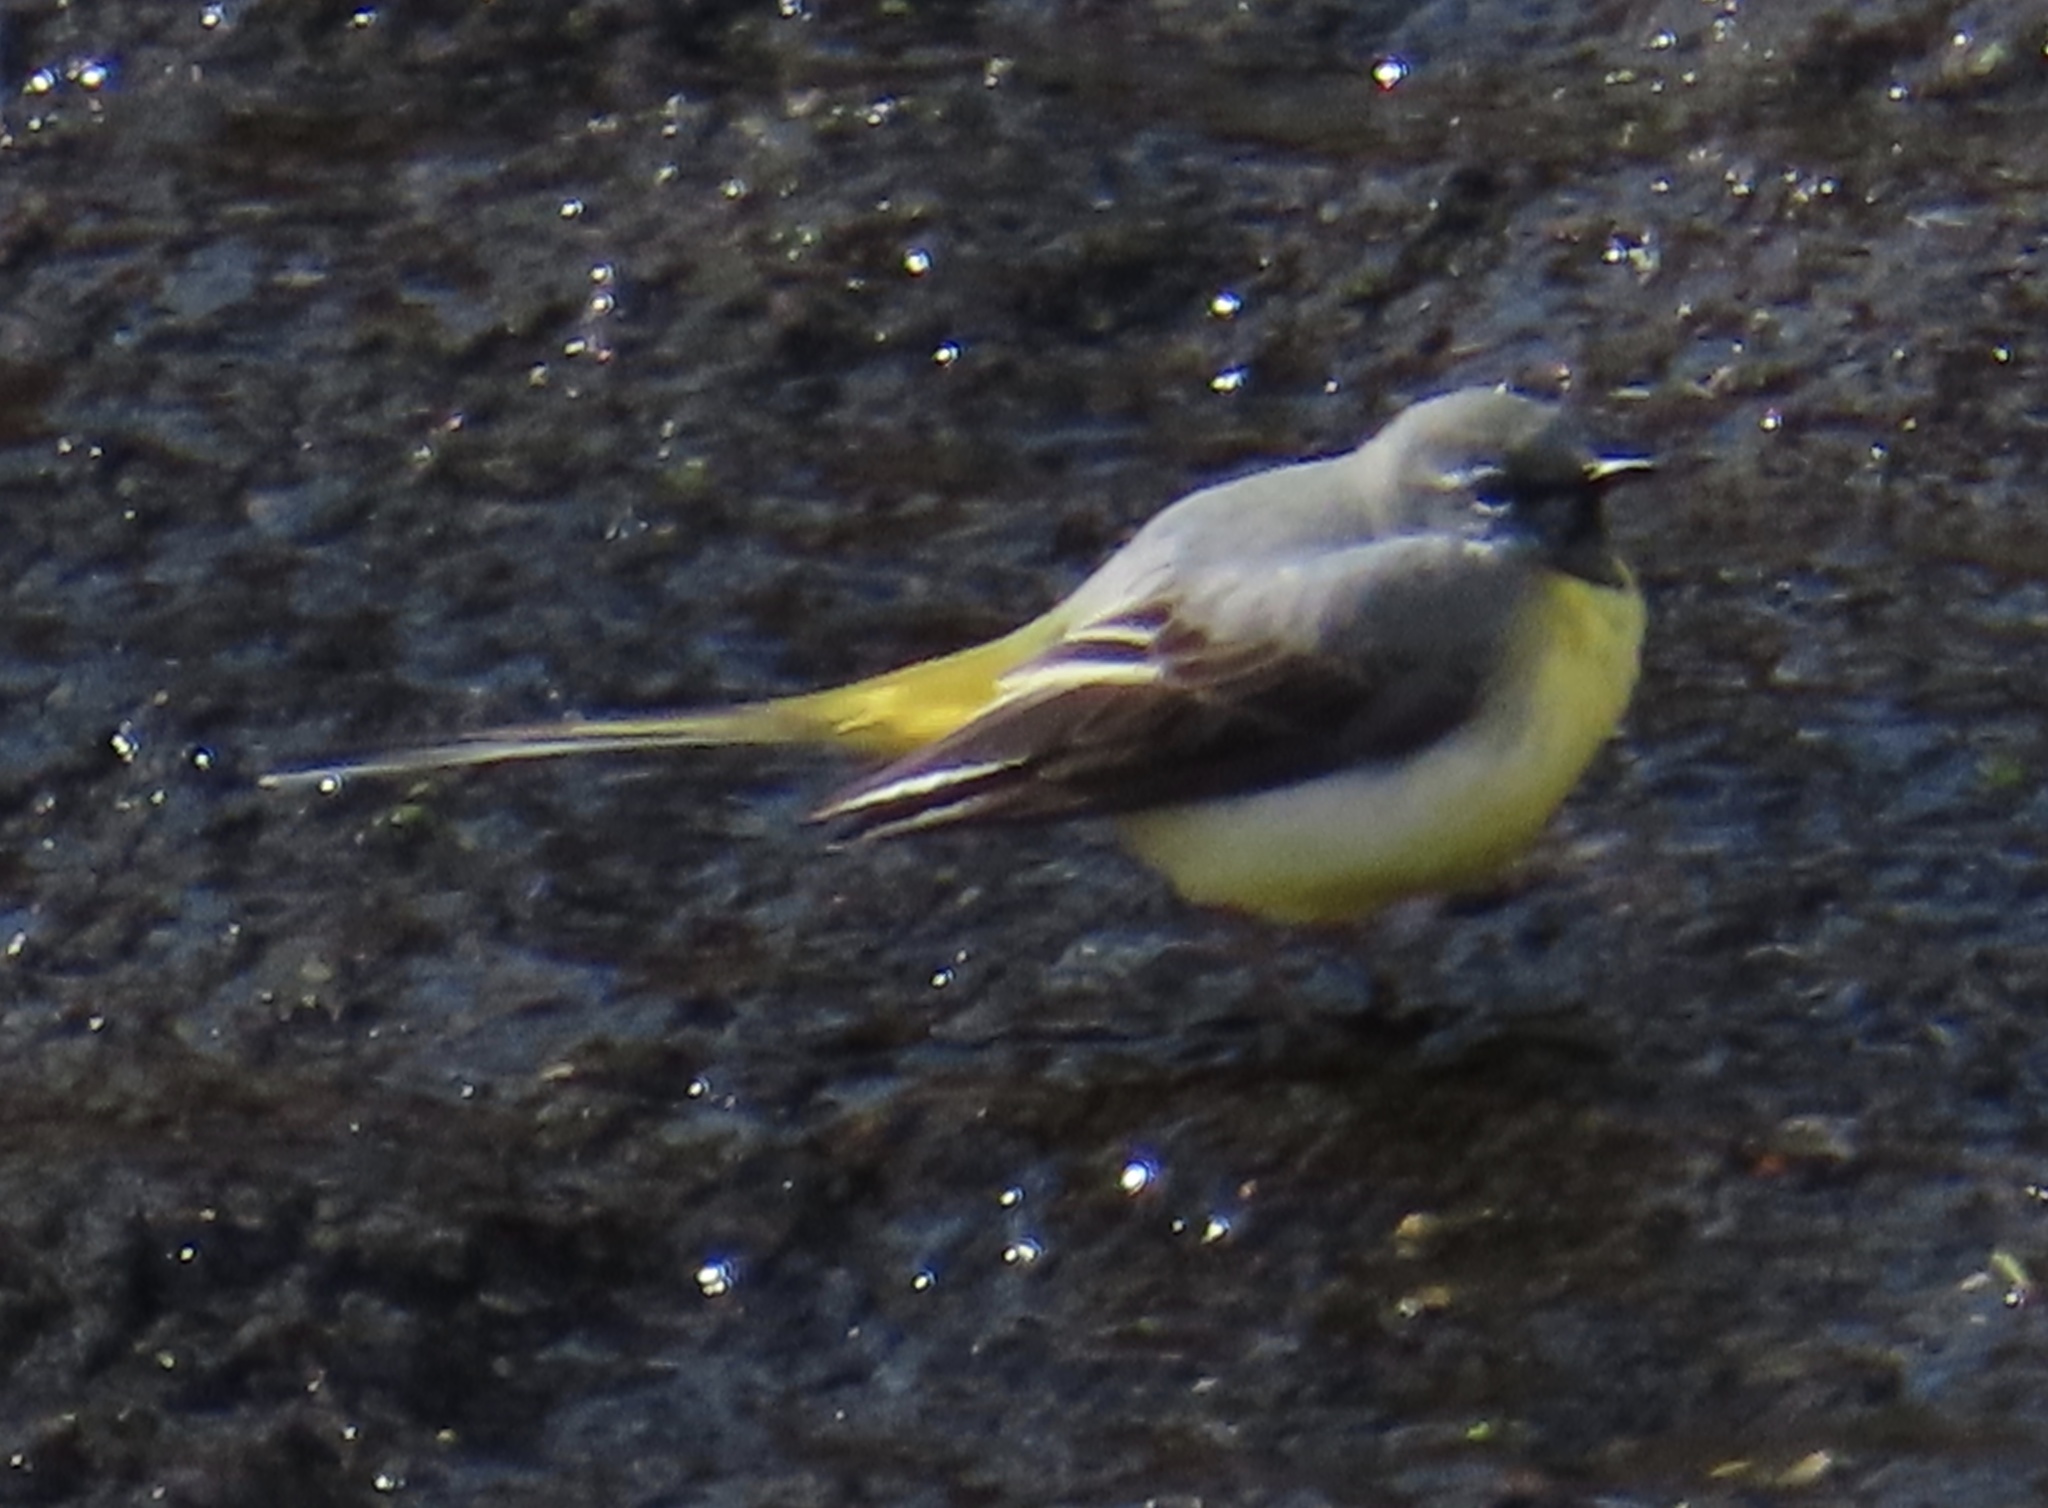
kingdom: Animalia
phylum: Chordata
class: Aves
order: Passeriformes
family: Motacillidae
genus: Motacilla
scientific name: Motacilla cinerea
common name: Grey wagtail
